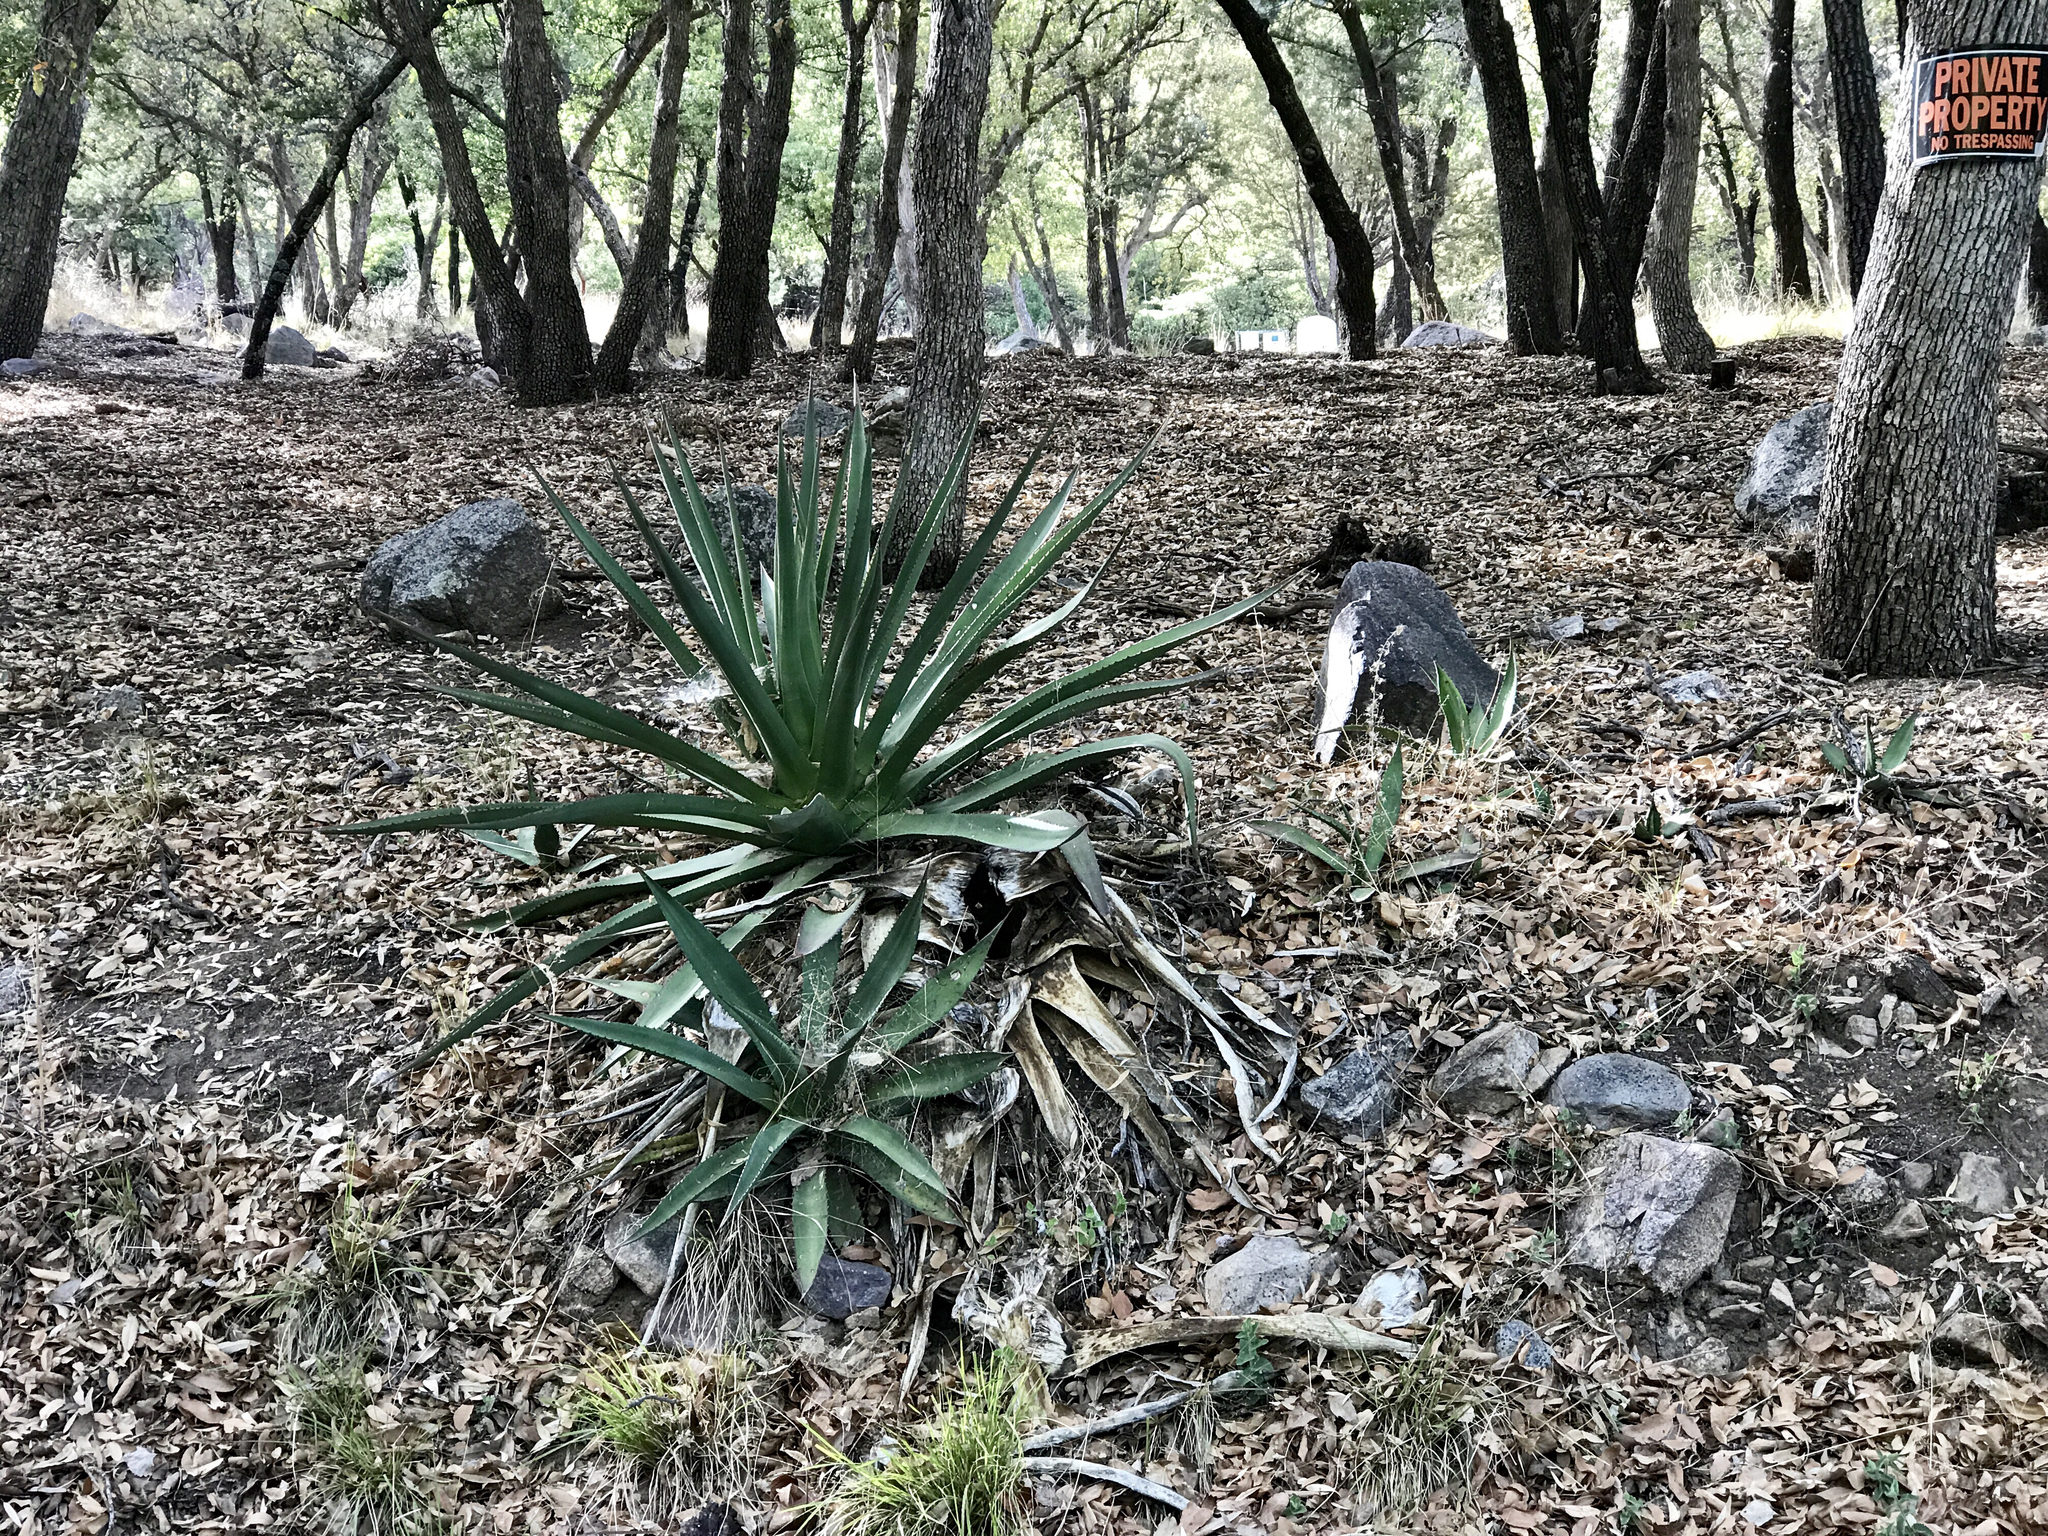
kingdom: Plantae
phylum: Tracheophyta
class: Liliopsida
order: Asparagales
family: Asparagaceae
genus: Agave
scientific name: Agave palmeri
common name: Palmer agave
